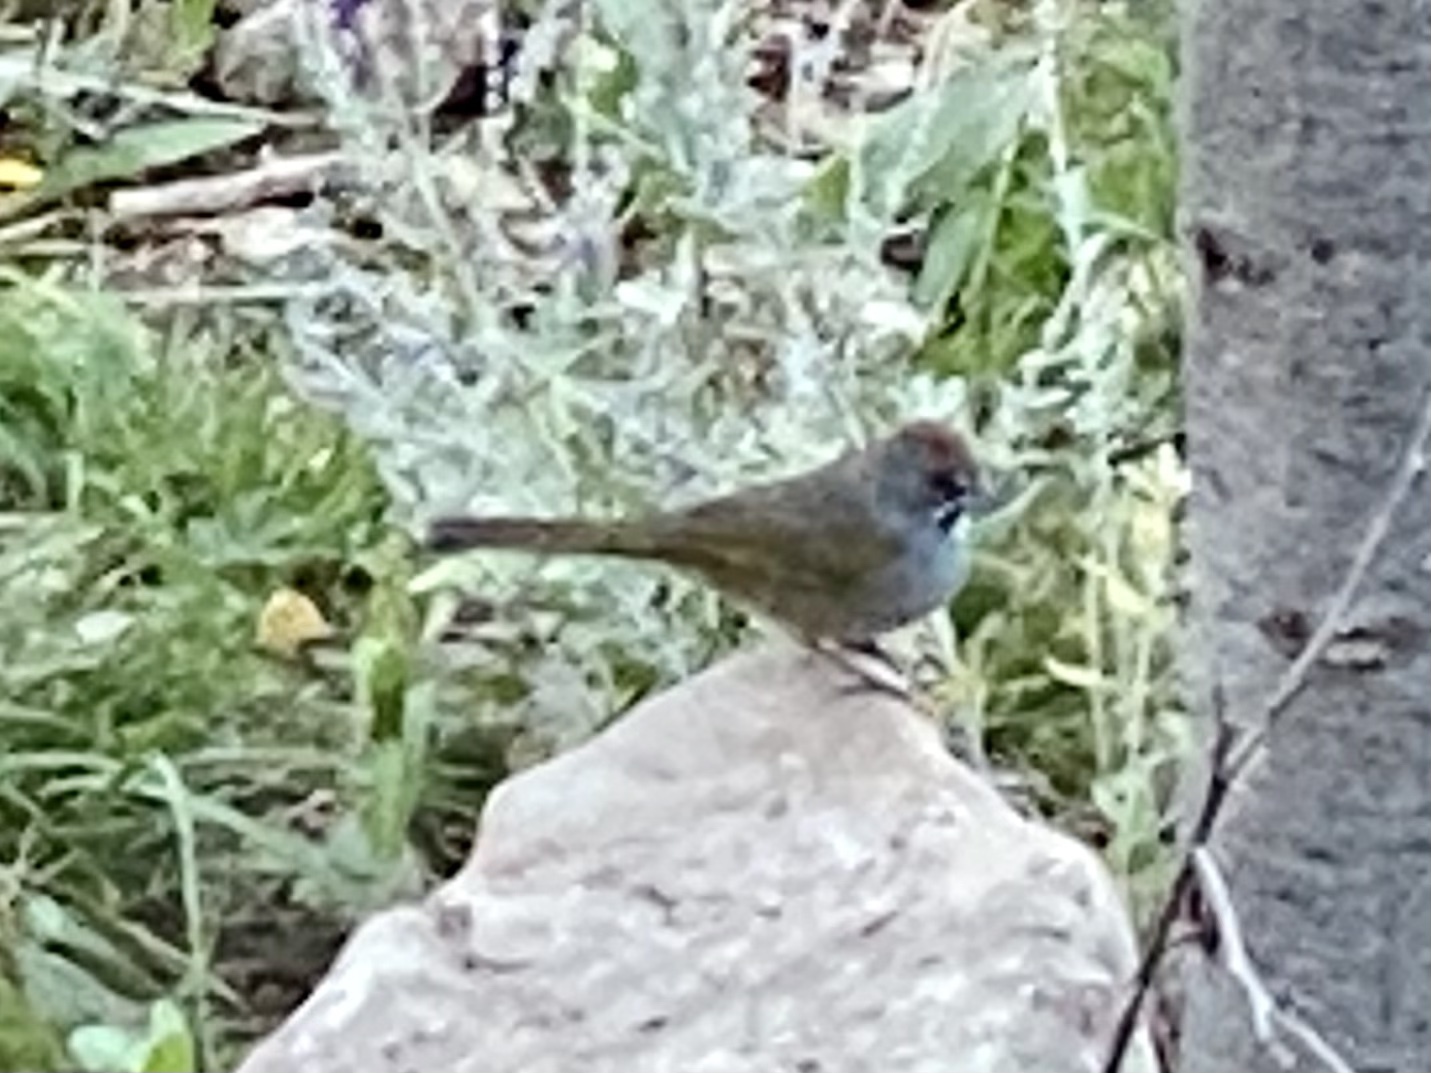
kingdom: Animalia
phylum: Chordata
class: Aves
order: Passeriformes
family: Passerellidae
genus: Pipilo
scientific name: Pipilo chlorurus
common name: Green-tailed towhee
